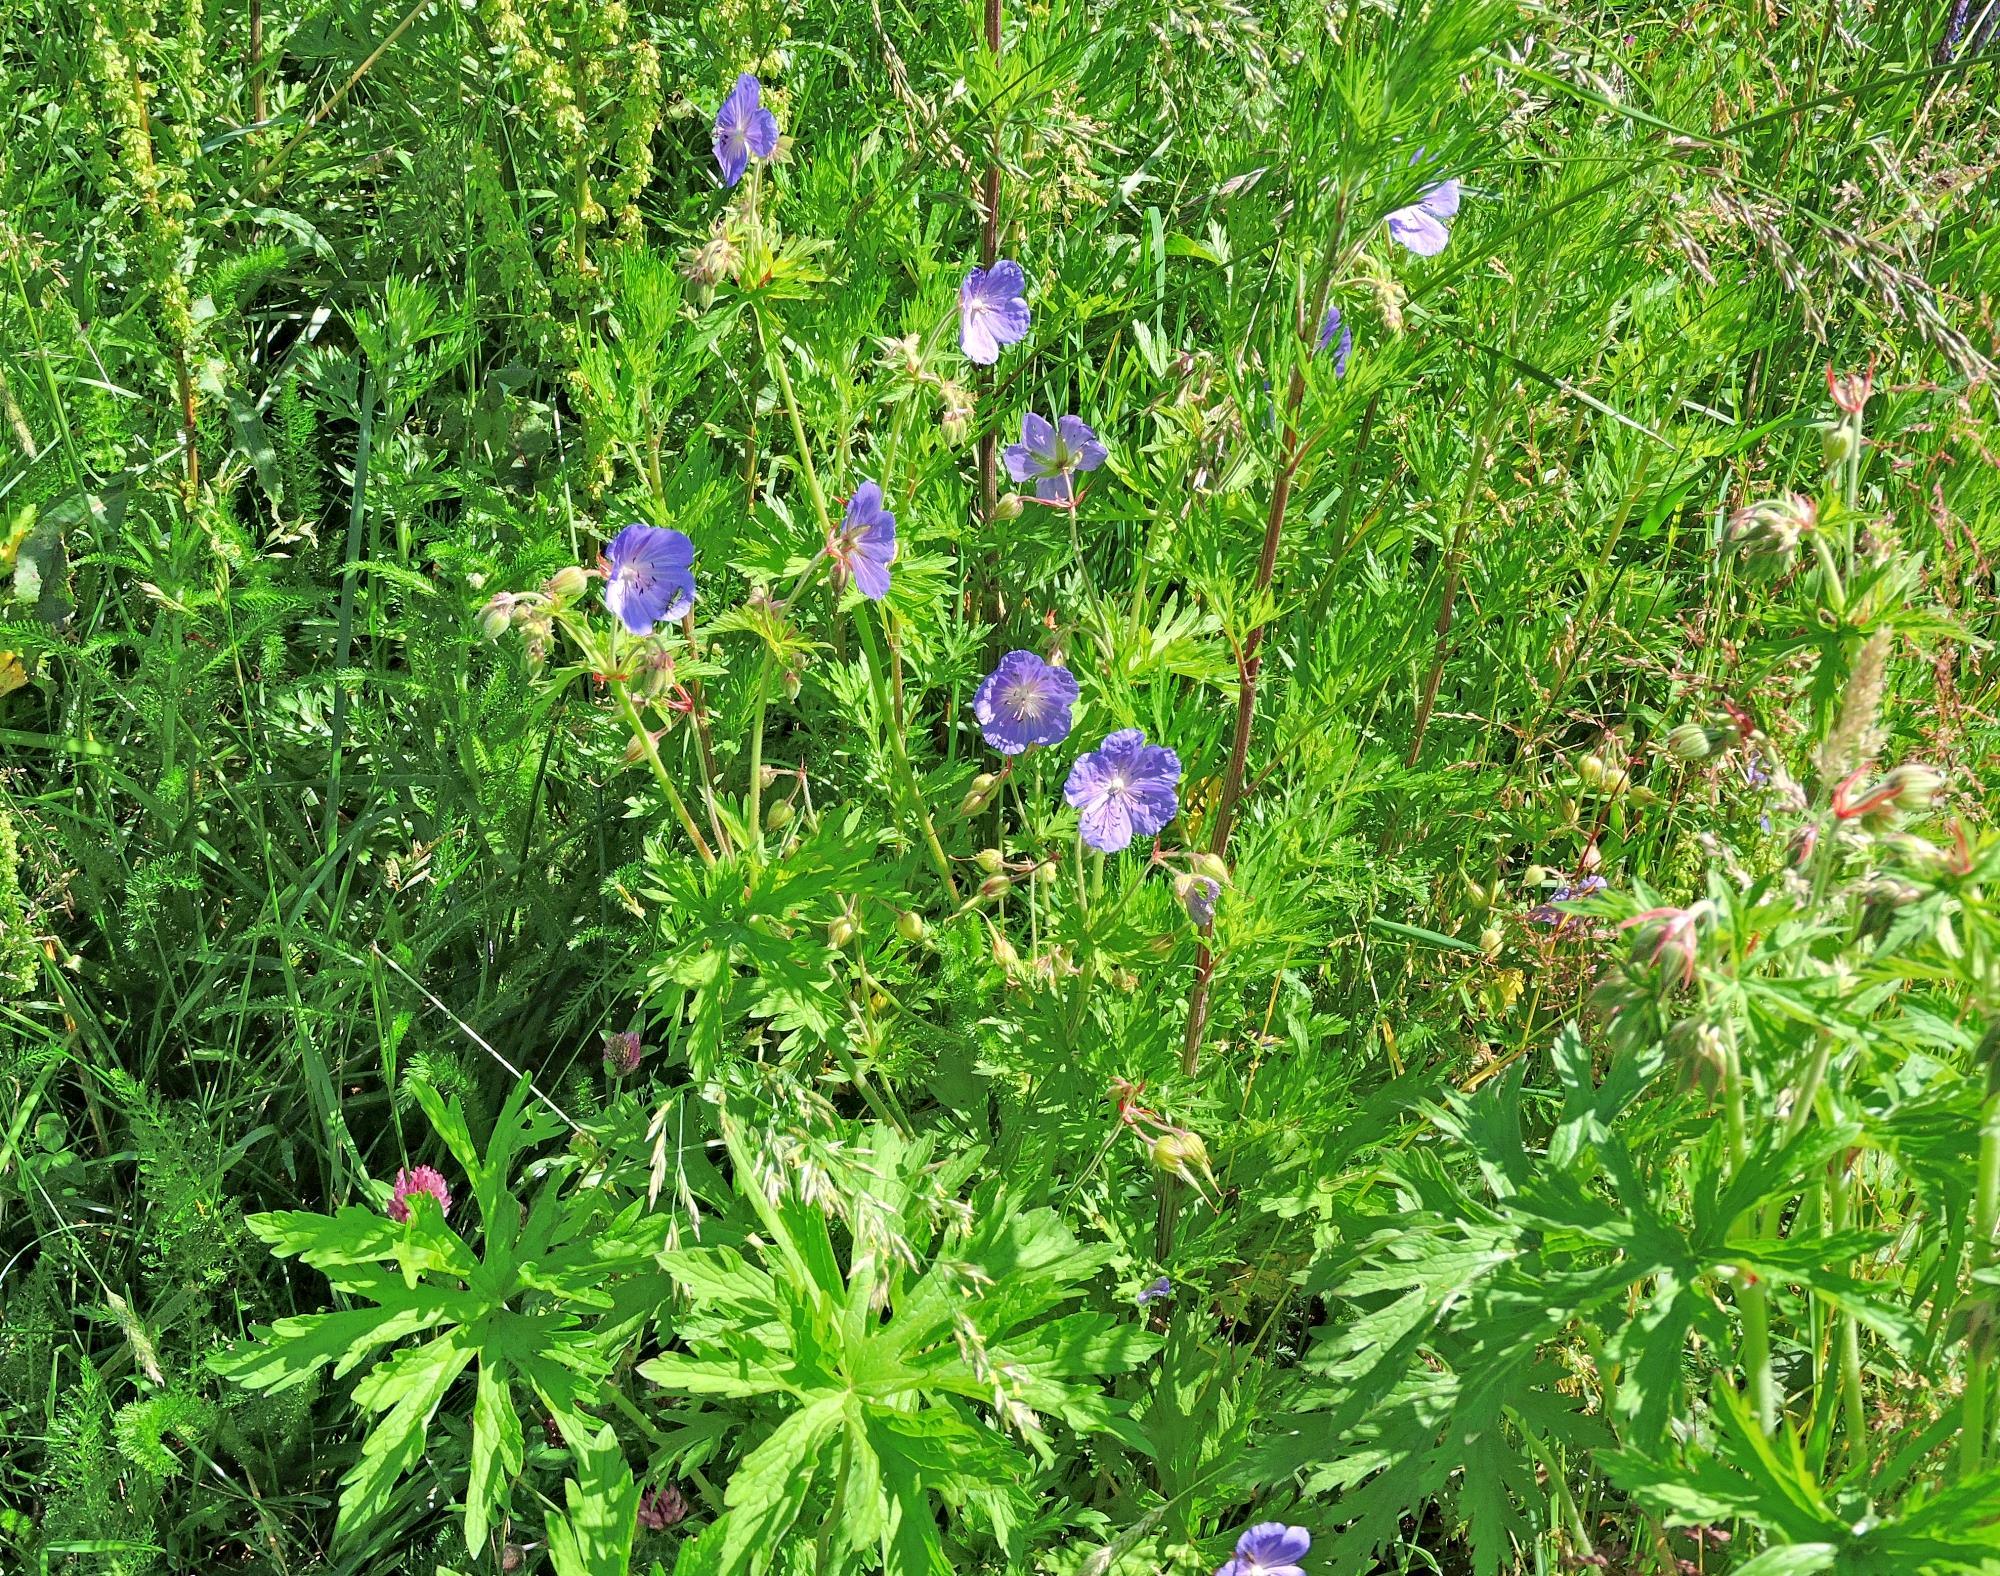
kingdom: Plantae
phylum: Tracheophyta
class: Magnoliopsida
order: Geraniales
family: Geraniaceae
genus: Geranium
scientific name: Geranium pratense
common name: Meadow crane's-bill
